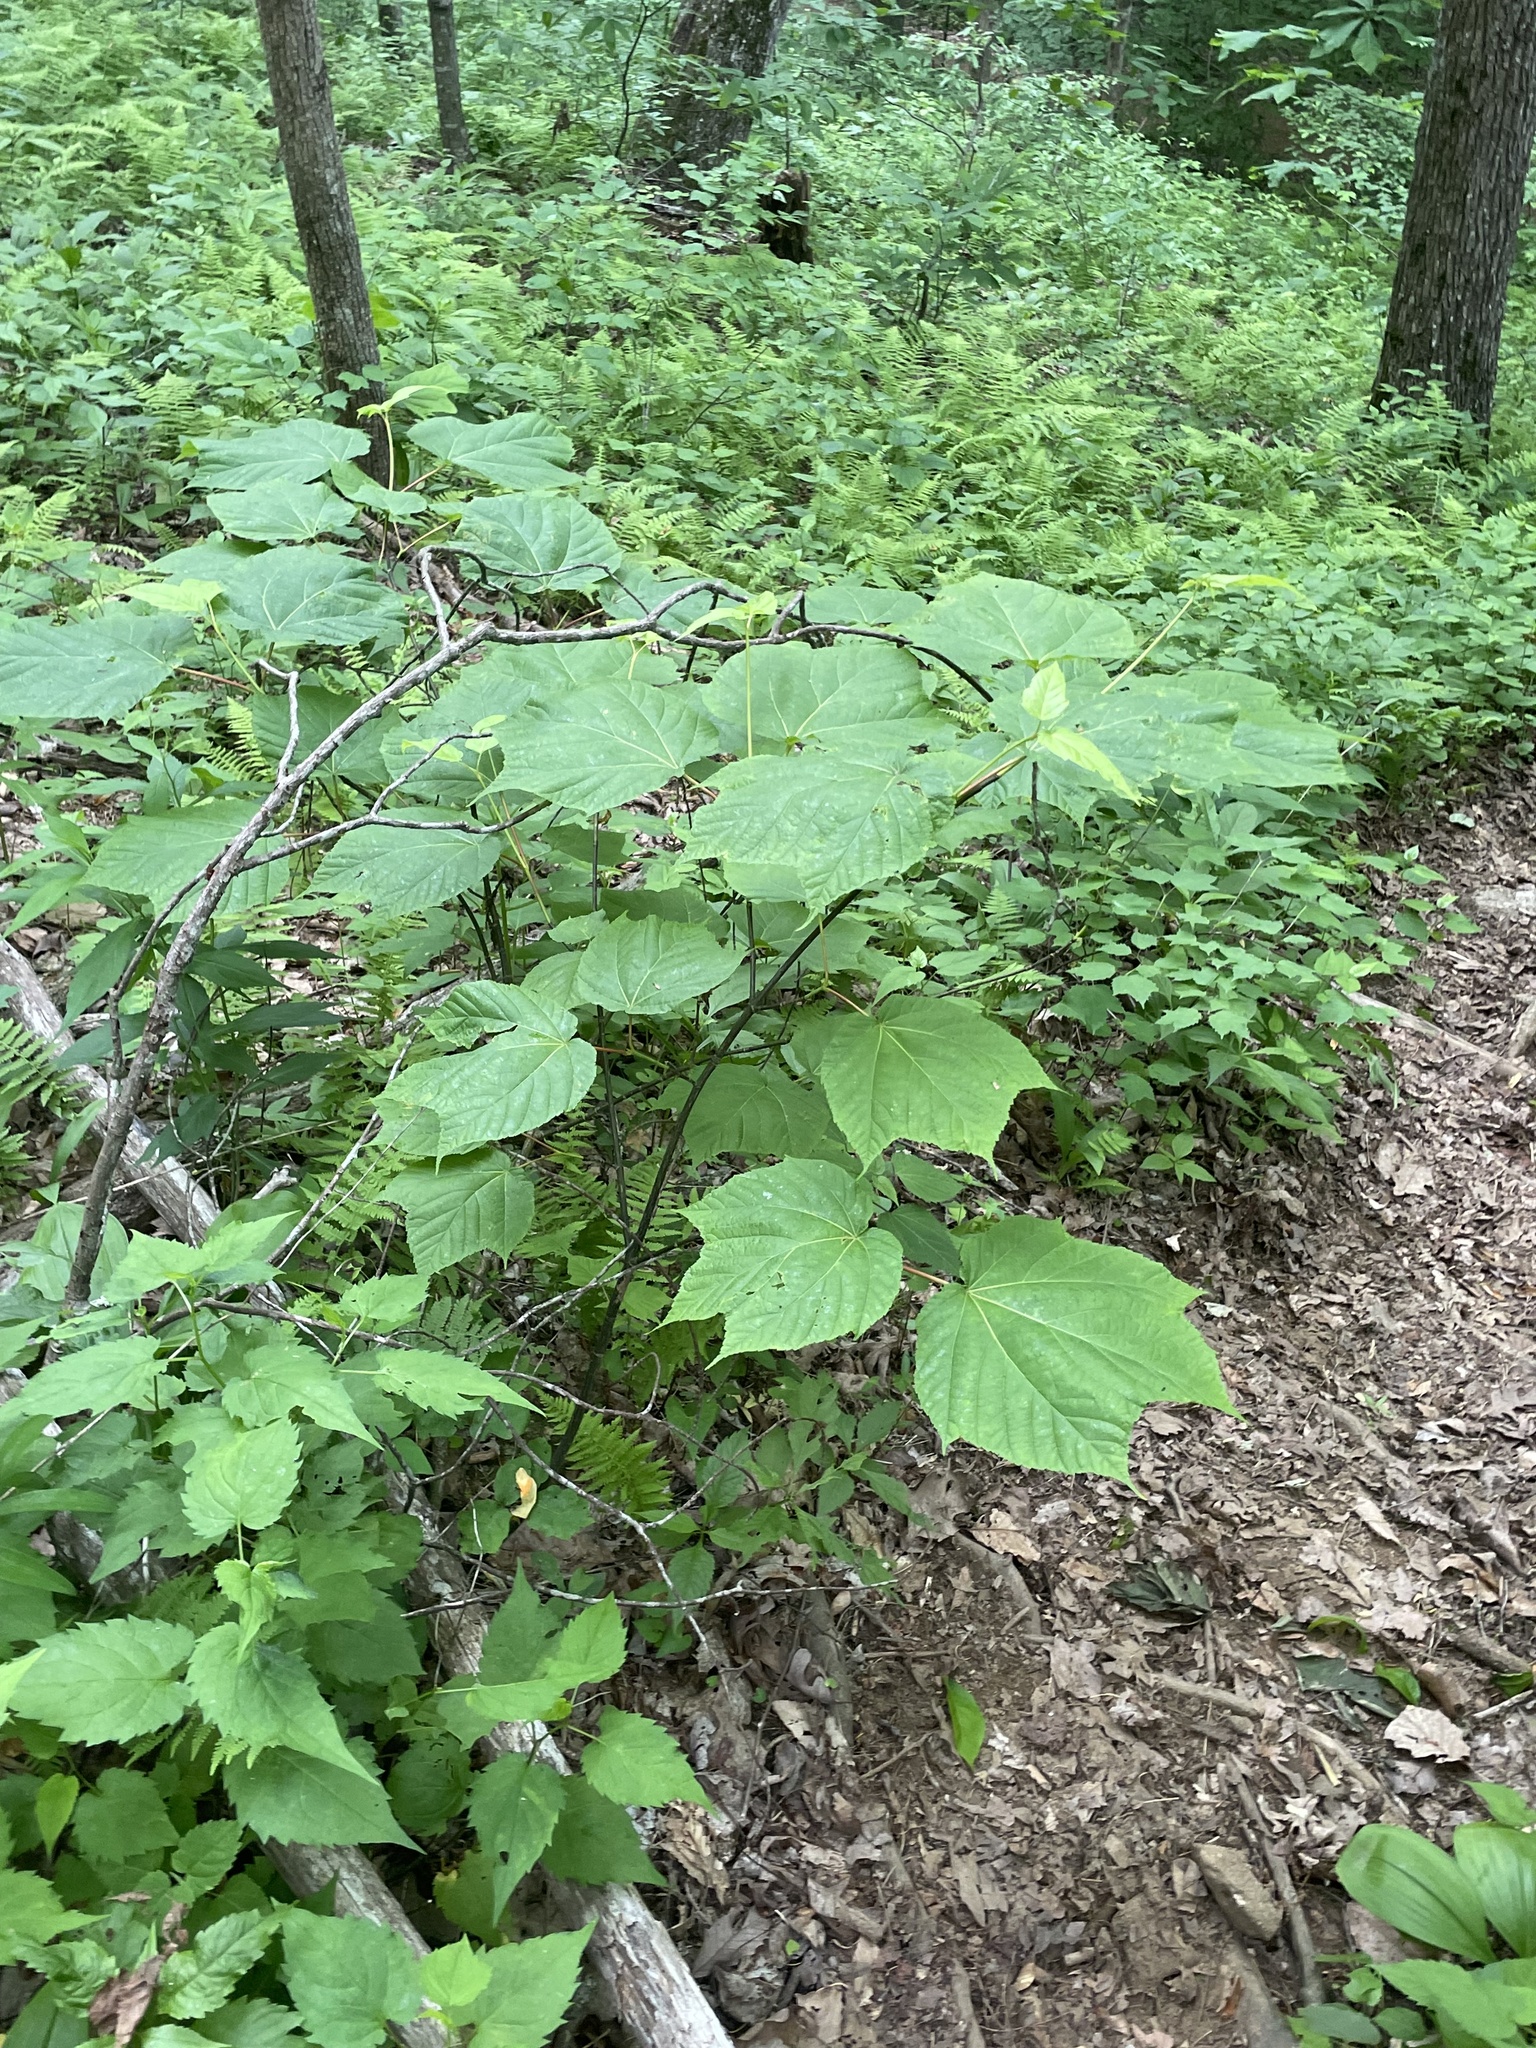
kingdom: Plantae
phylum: Tracheophyta
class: Magnoliopsida
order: Sapindales
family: Sapindaceae
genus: Acer
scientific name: Acer pensylvanicum
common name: Moosewood
